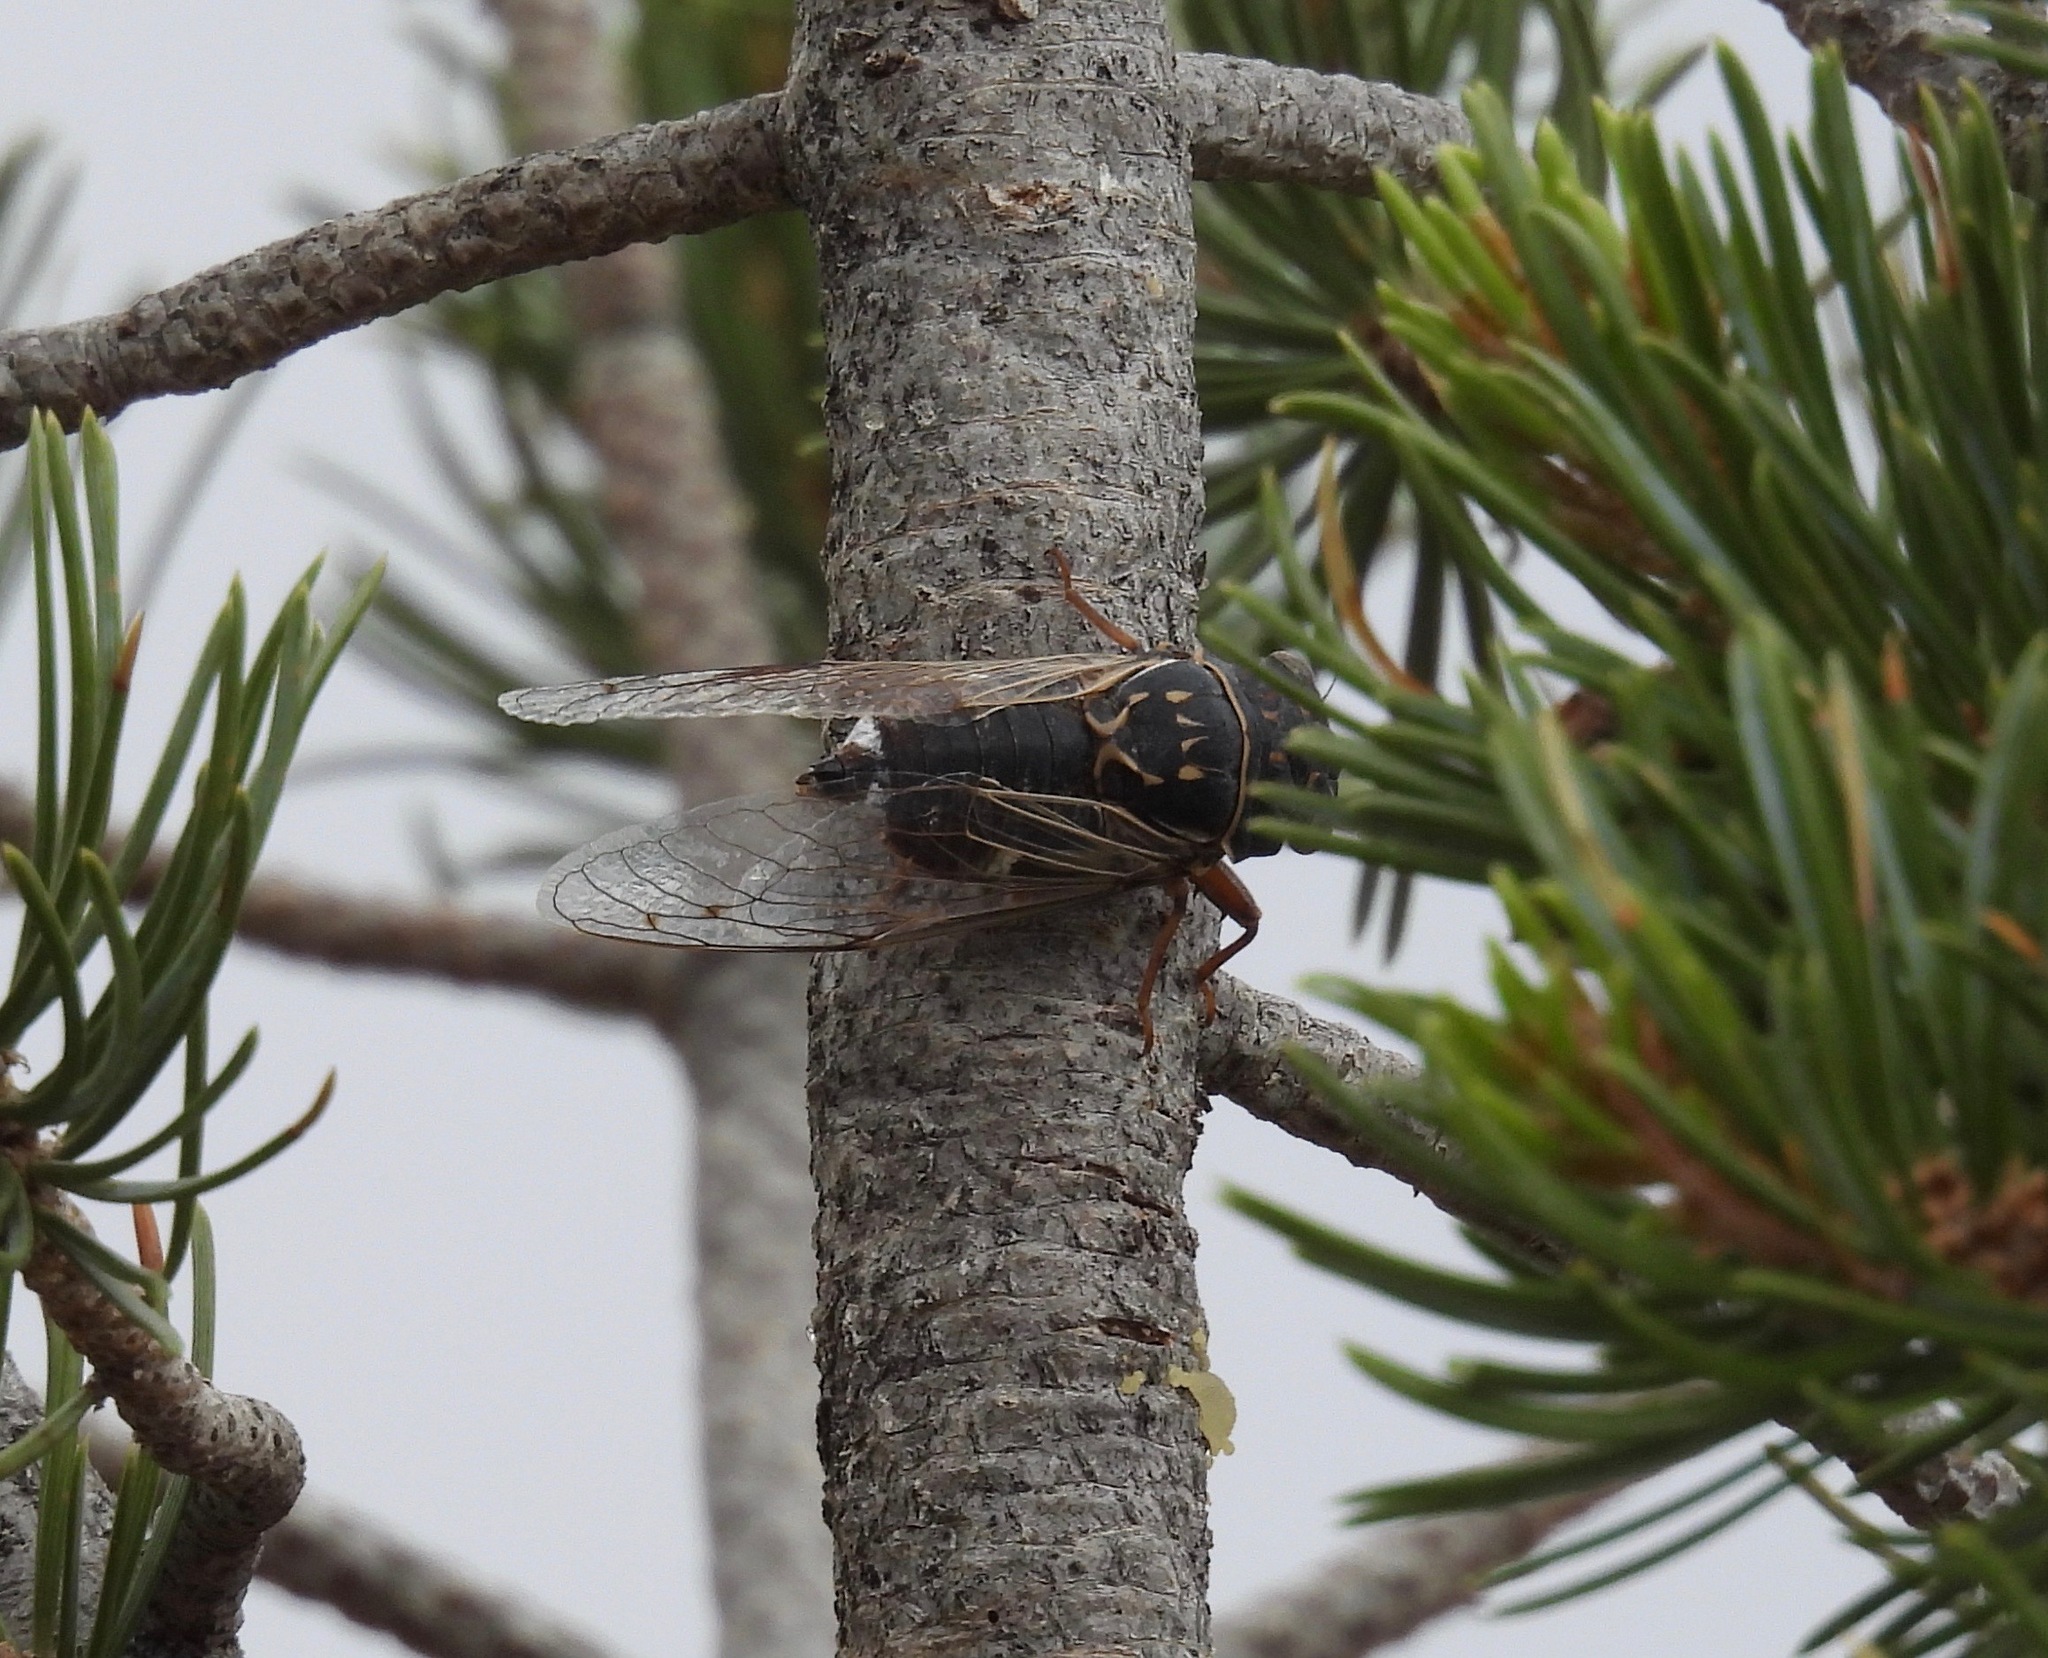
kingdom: Animalia
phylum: Arthropoda
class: Insecta
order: Hemiptera
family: Cicadidae
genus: Hadoa
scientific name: Hadoa inaudita
